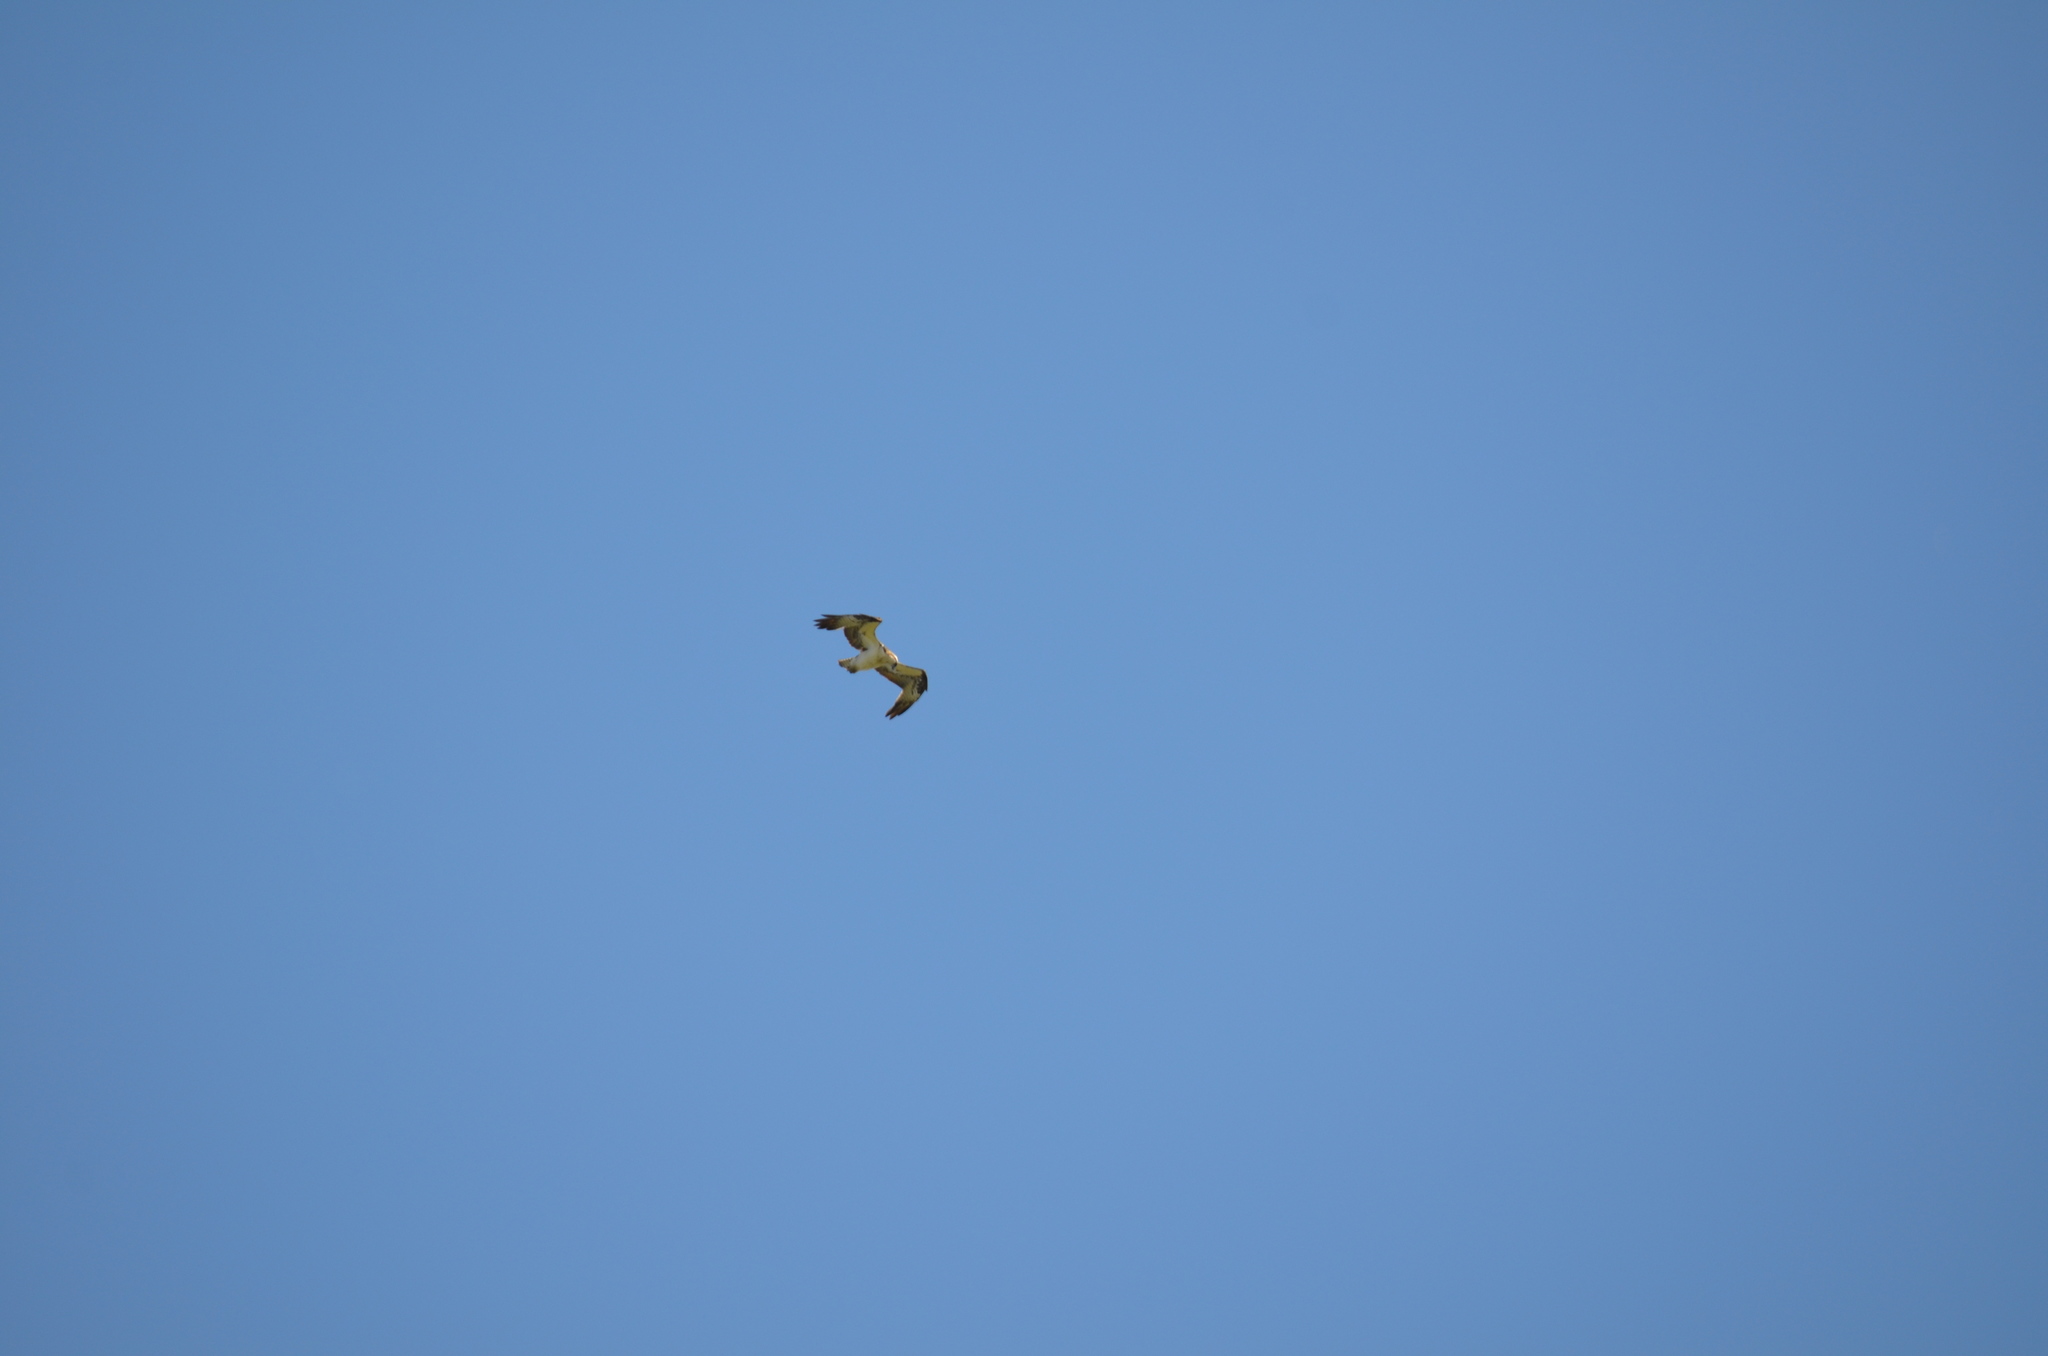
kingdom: Animalia
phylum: Chordata
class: Aves
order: Accipitriformes
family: Pandionidae
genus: Pandion
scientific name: Pandion haliaetus
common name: Osprey
